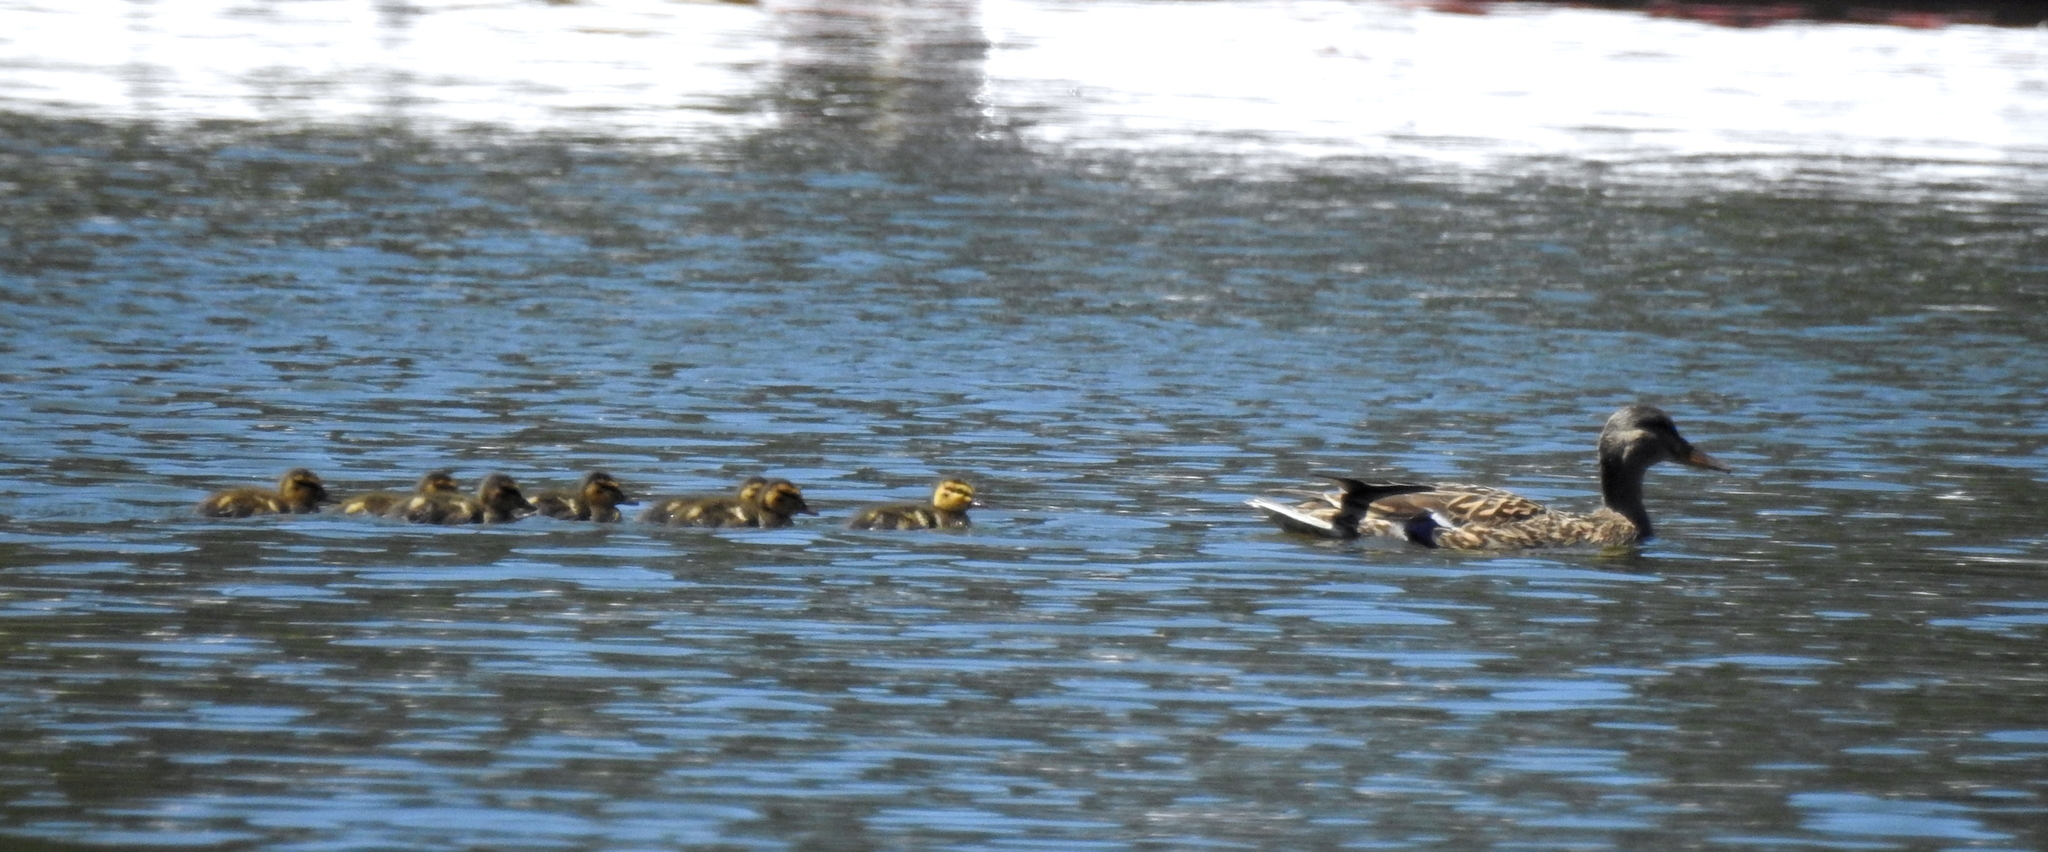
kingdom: Animalia
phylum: Chordata
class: Aves
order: Anseriformes
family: Anatidae
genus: Anas
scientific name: Anas platyrhynchos
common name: Mallard
